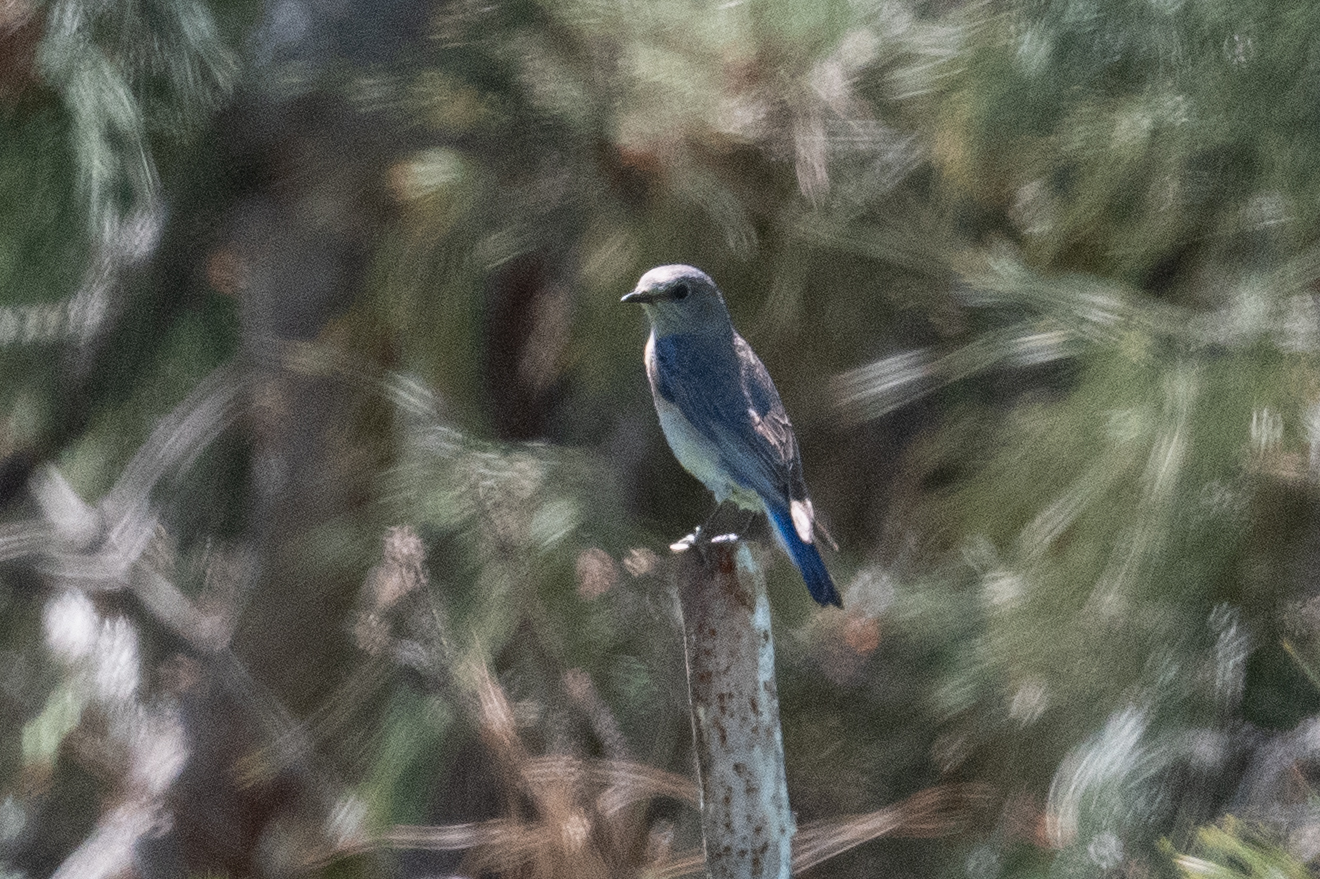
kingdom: Animalia
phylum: Chordata
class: Aves
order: Passeriformes
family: Turdidae
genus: Sialia
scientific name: Sialia currucoides
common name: Mountain bluebird
